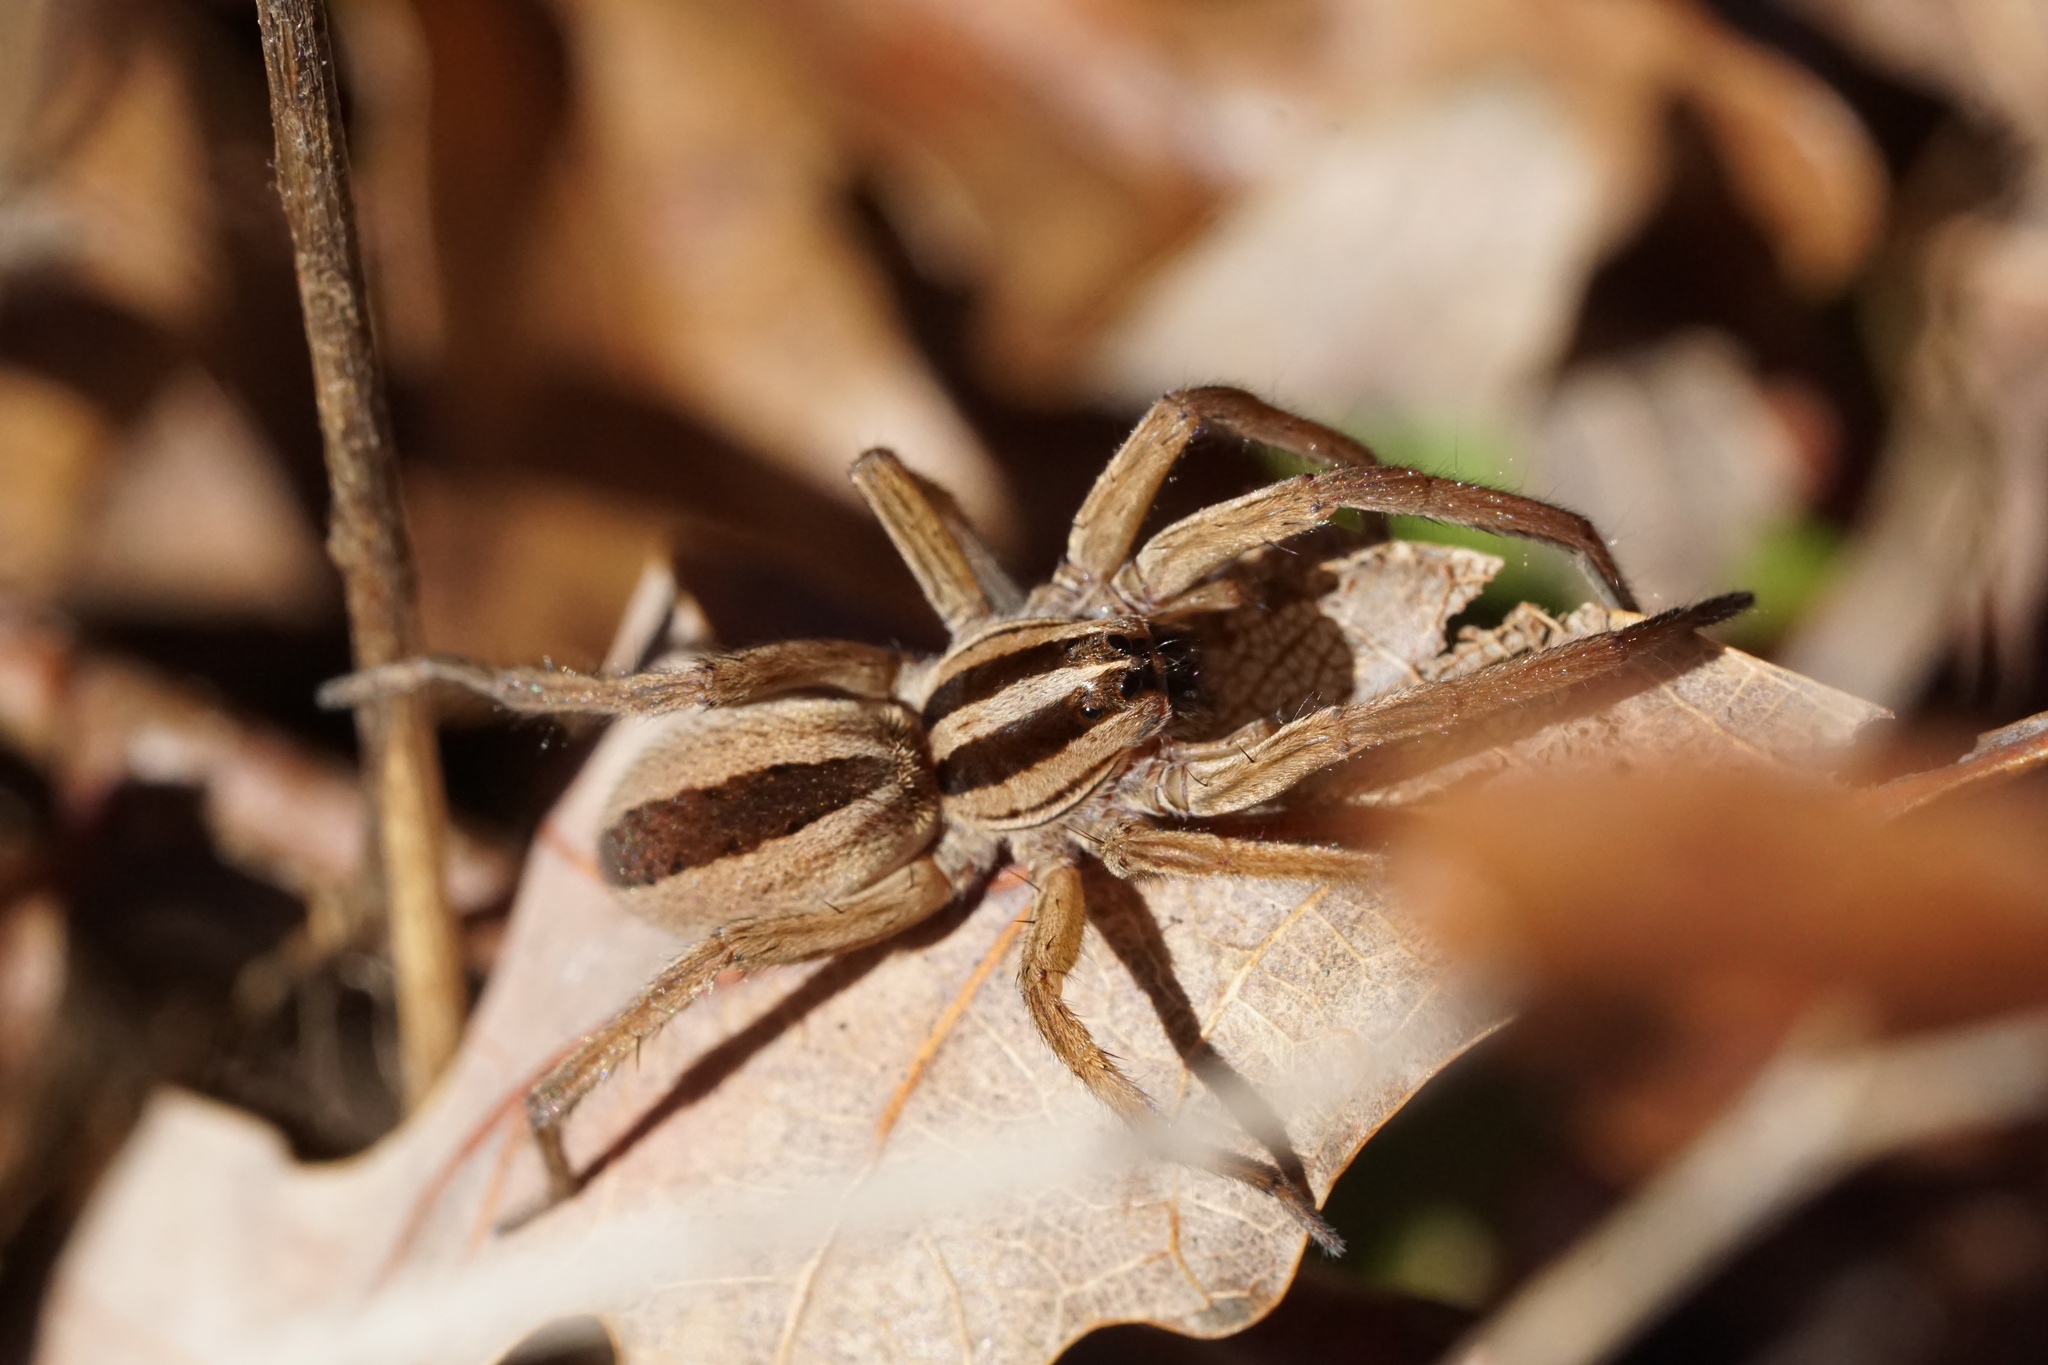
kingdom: Animalia
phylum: Arthropoda
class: Arachnida
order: Araneae
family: Lycosidae
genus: Rabidosa
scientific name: Rabidosa punctulata
